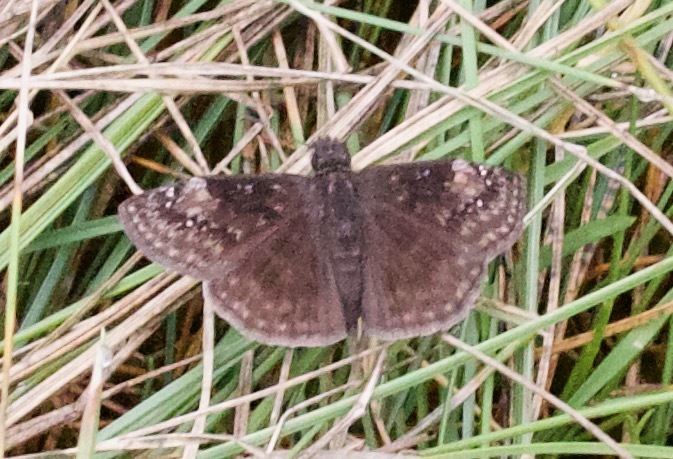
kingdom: Animalia
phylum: Arthropoda
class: Insecta
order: Lepidoptera
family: Hesperiidae
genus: Erynnis
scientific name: Erynnis baptisiae
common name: Wild indigo duskywing
